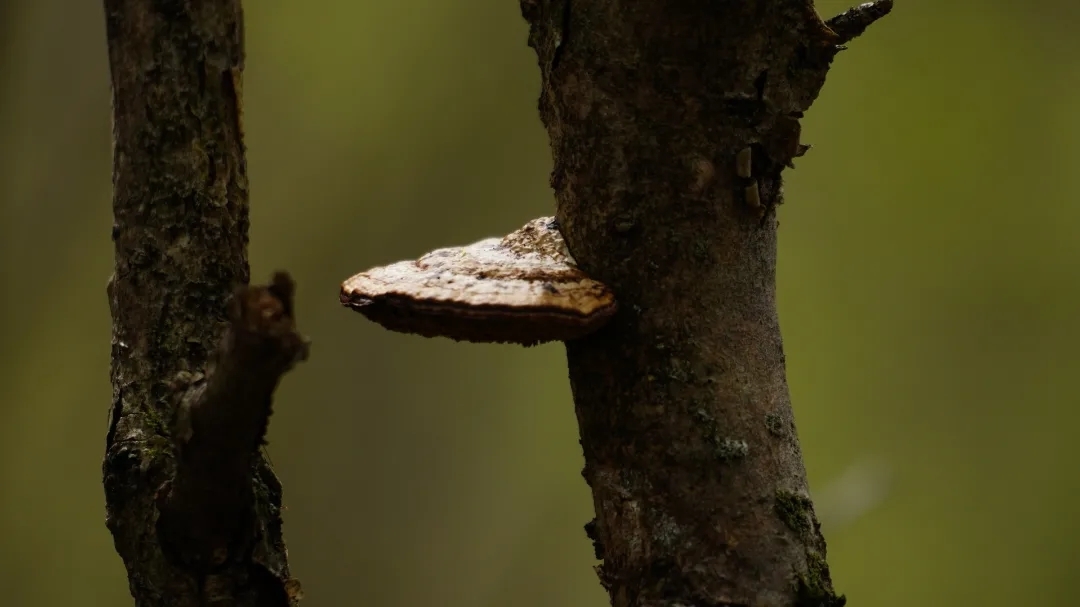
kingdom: Fungi
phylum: Basidiomycota
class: Agaricomycetes
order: Polyporales
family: Polyporaceae
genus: Daedaleopsis
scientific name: Daedaleopsis confragosa
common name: Blushing bracket
